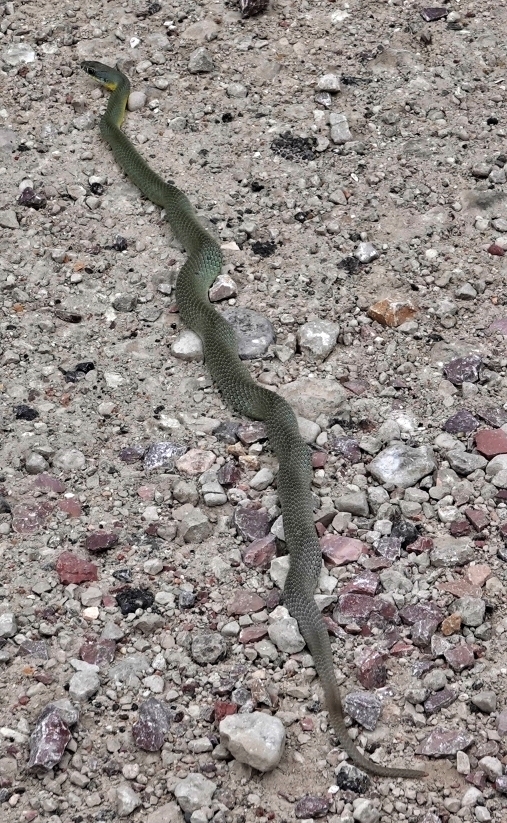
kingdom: Animalia
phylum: Chordata
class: Squamata
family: Colubridae
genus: Coluber
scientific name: Coluber constrictor
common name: Eastern racer
